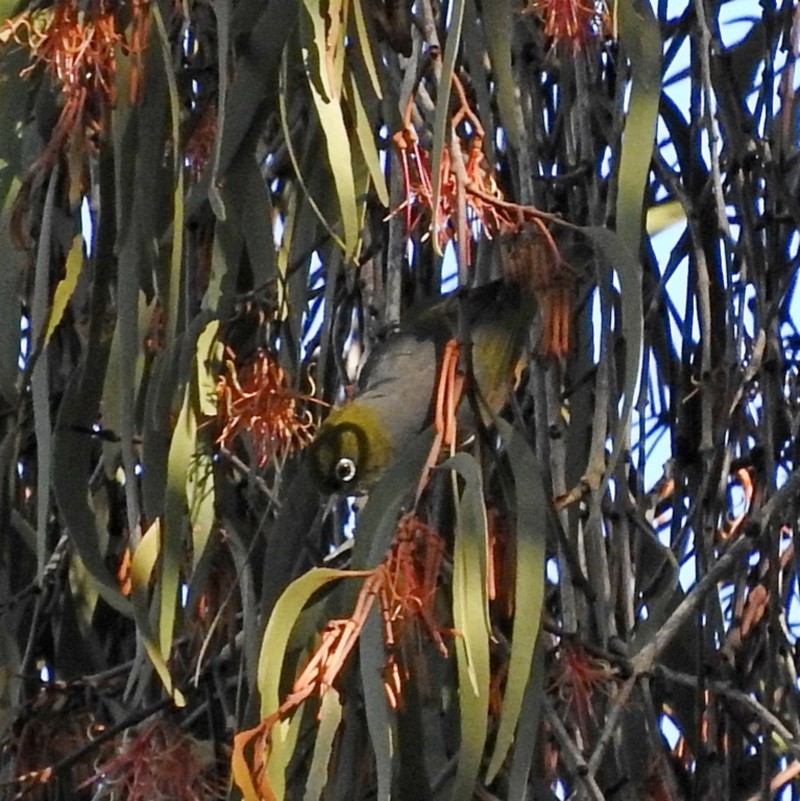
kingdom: Animalia
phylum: Chordata
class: Aves
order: Passeriformes
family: Zosteropidae
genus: Zosterops
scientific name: Zosterops lateralis
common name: Silvereye
